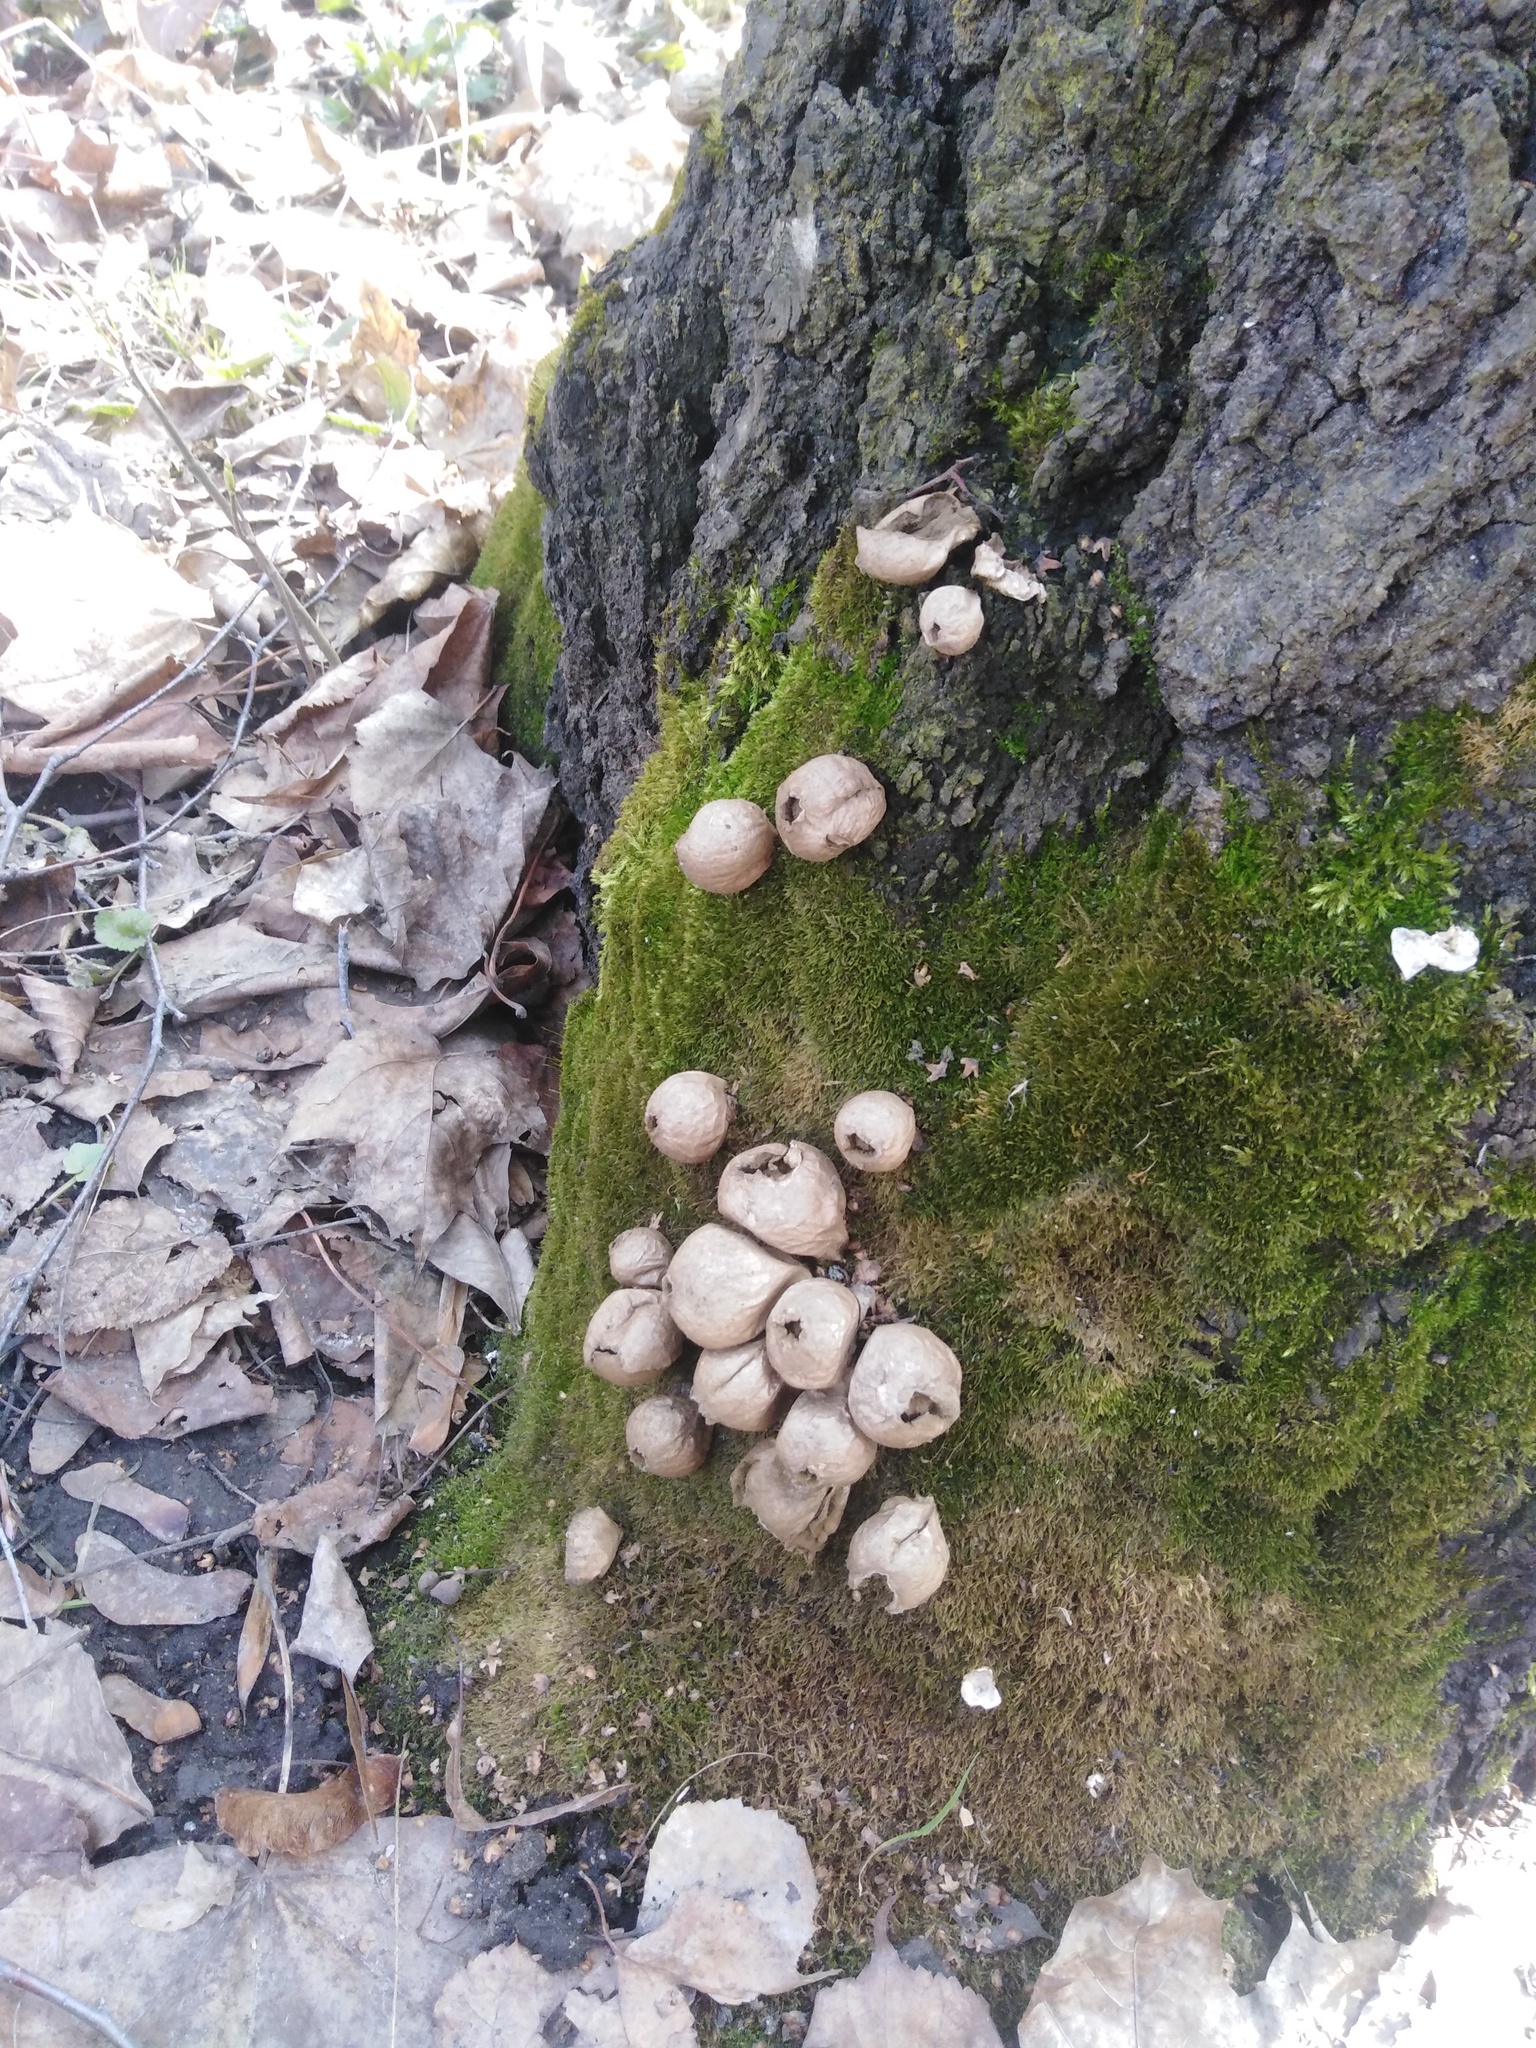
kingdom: Fungi
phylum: Basidiomycota
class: Agaricomycetes
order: Agaricales
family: Lycoperdaceae
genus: Apioperdon
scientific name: Apioperdon pyriforme
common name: Pear-shaped puffball
